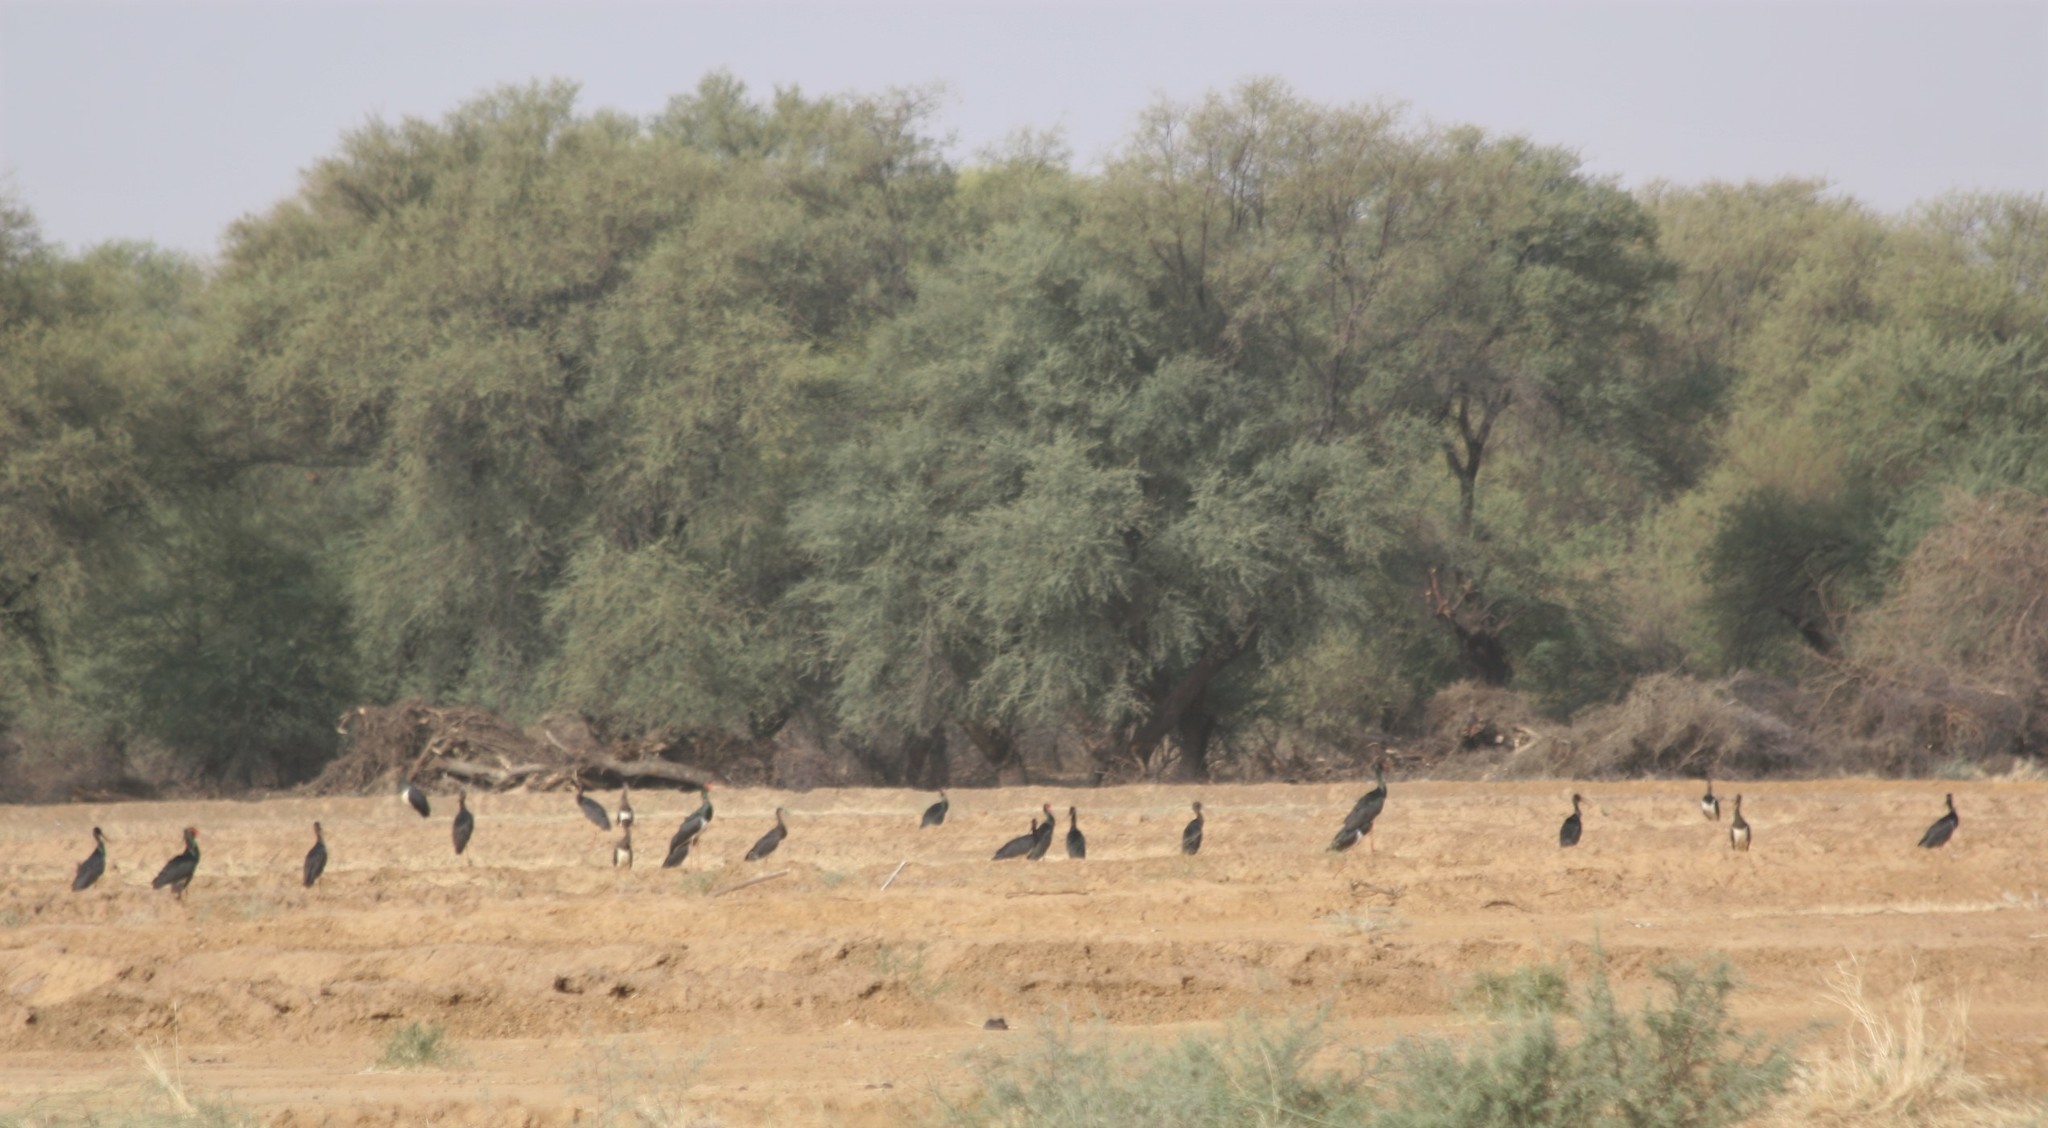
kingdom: Animalia
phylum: Chordata
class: Aves
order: Ciconiiformes
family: Ciconiidae
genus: Ciconia
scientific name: Ciconia nigra
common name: Black stork
